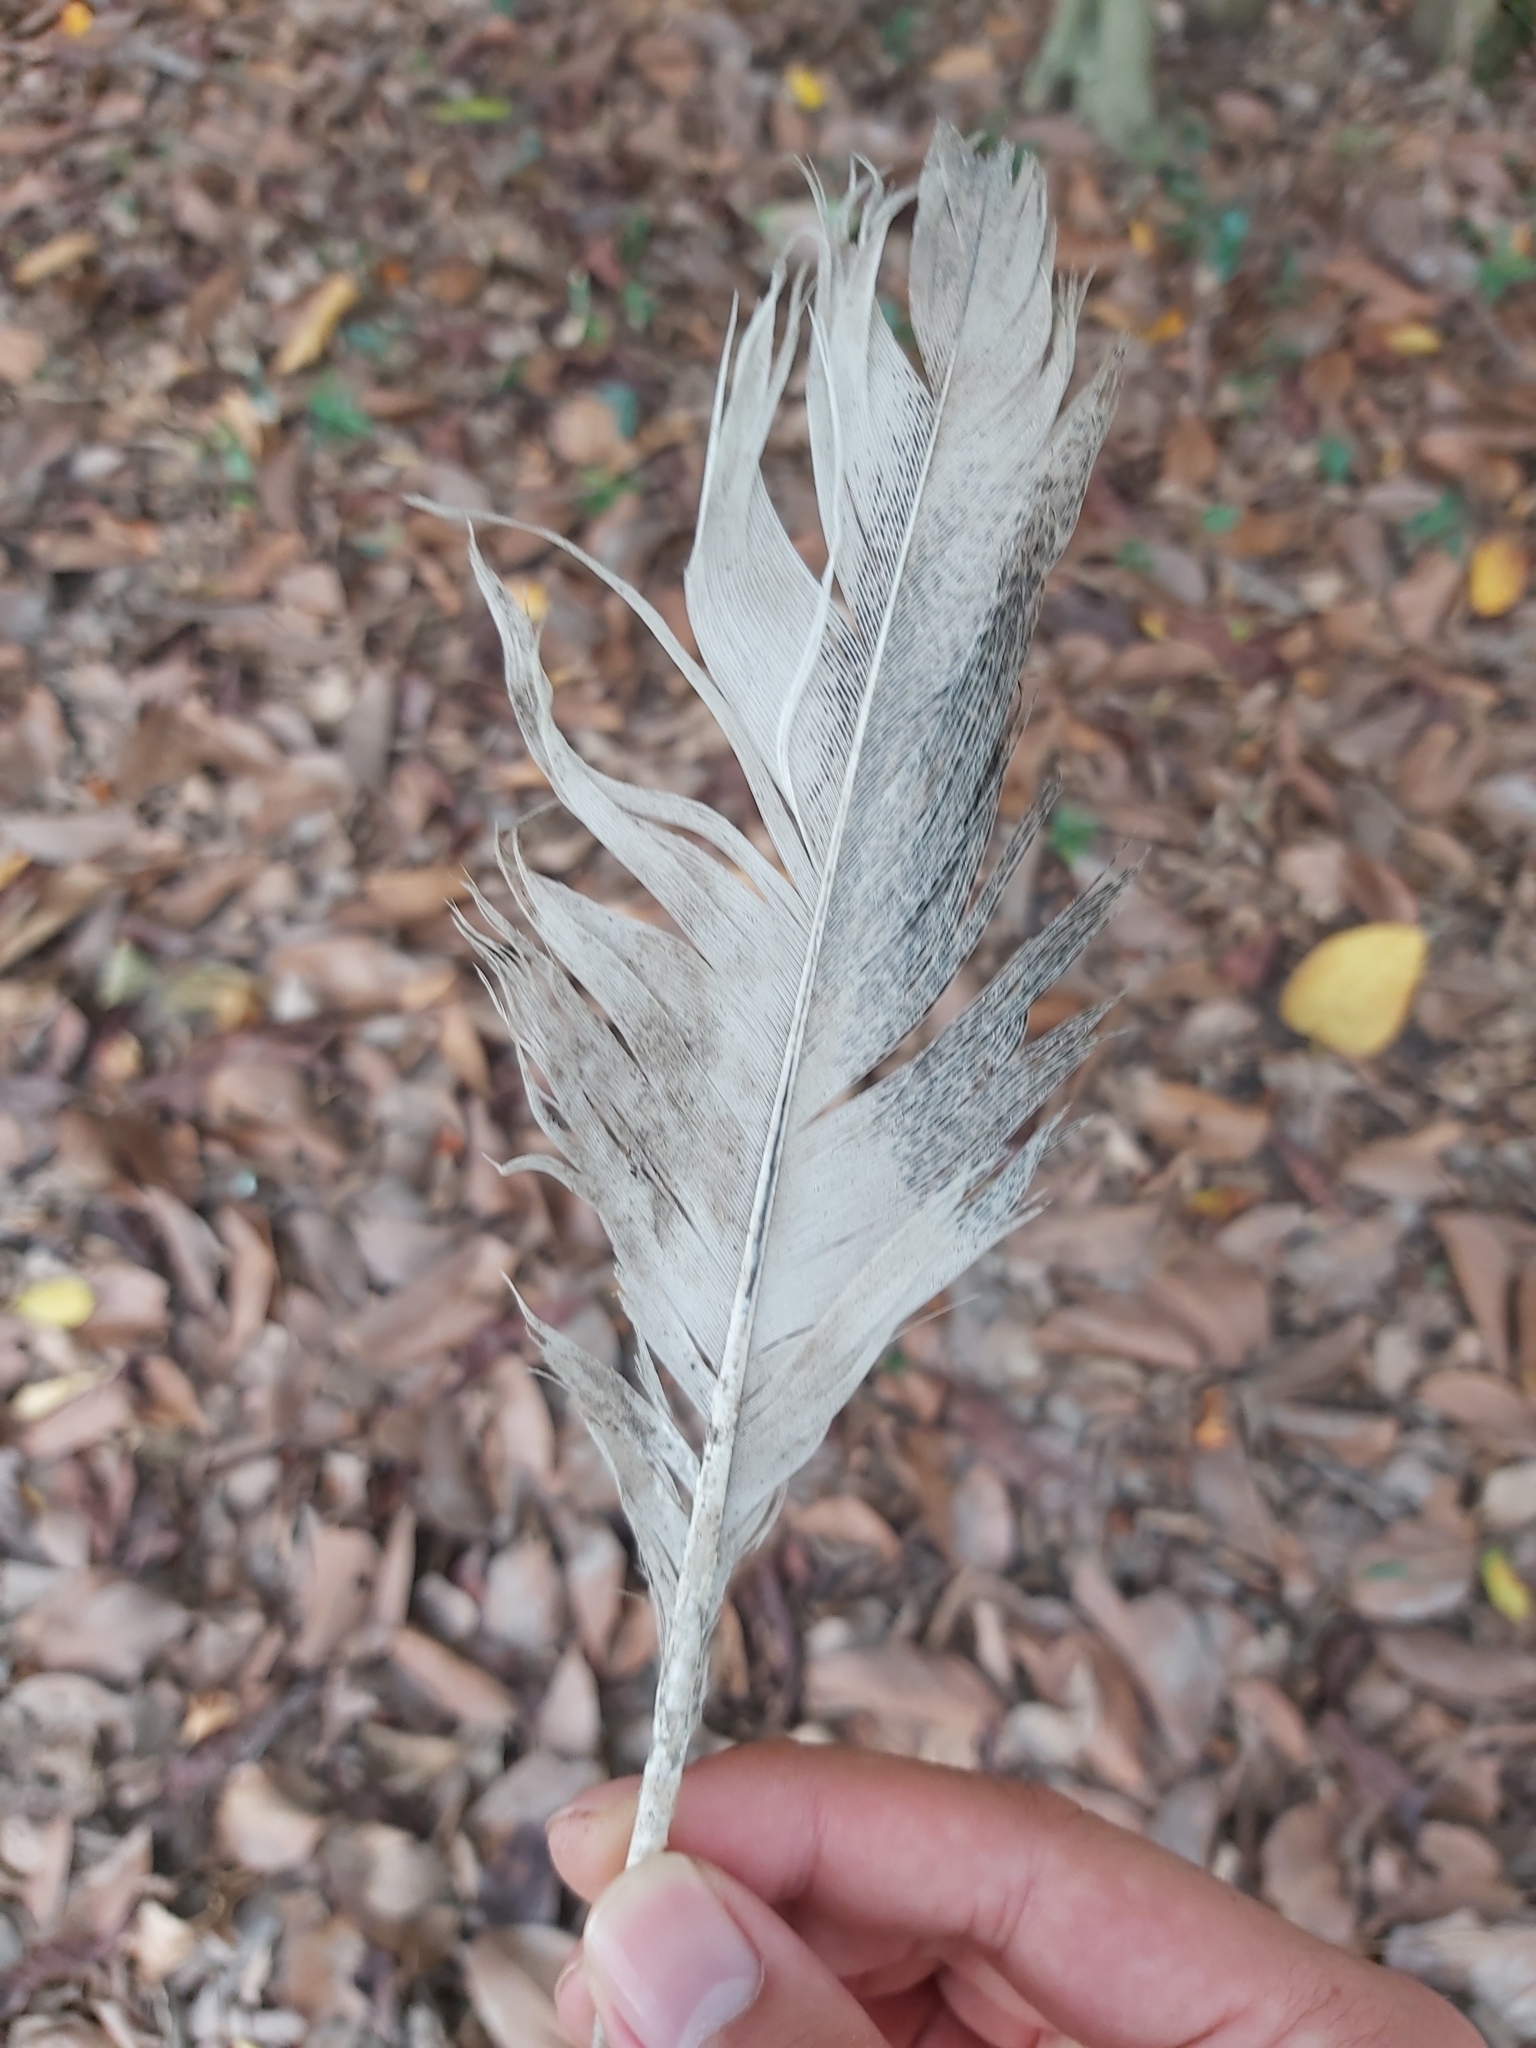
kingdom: Animalia
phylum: Chordata
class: Aves
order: Pelecaniformes
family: Threskiornithidae
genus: Threskiornis
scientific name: Threskiornis molucca
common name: Australian white ibis
